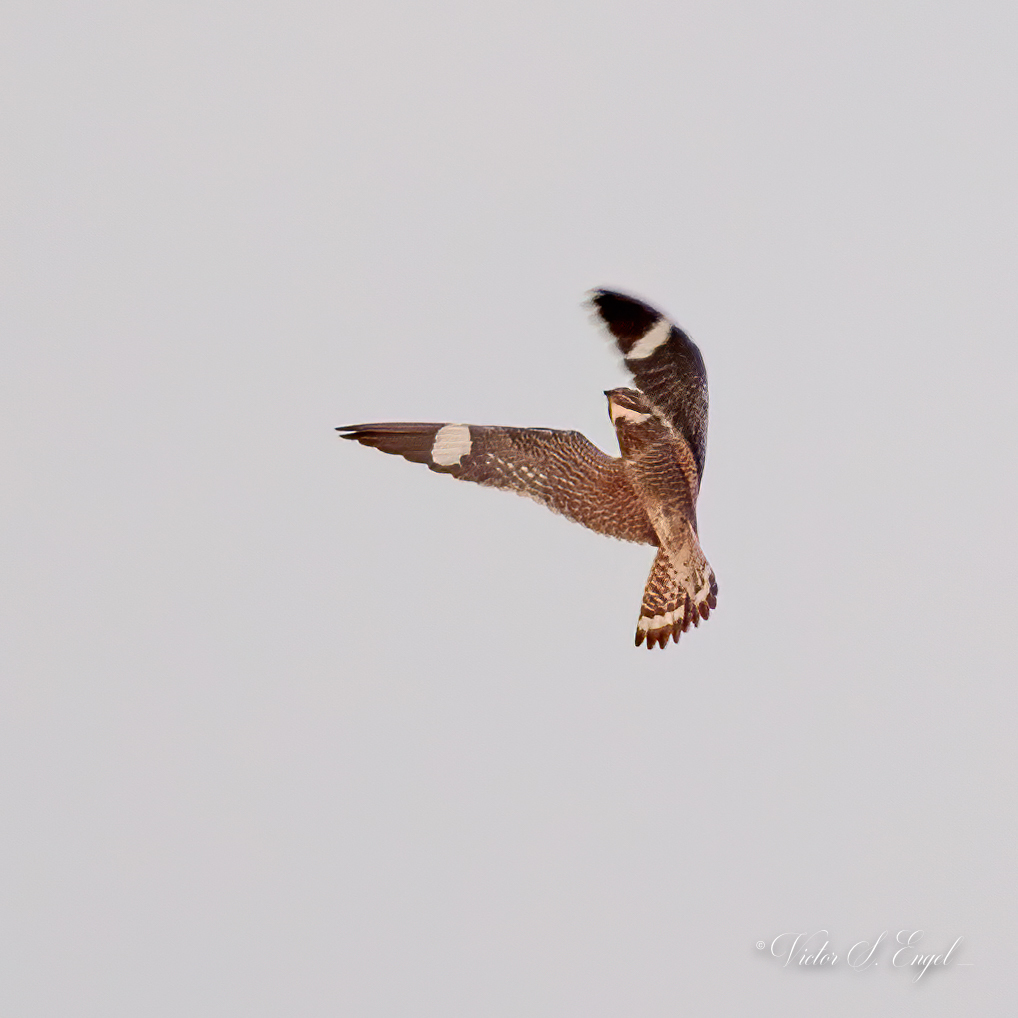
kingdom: Animalia
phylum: Chordata
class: Aves
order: Caprimulgiformes
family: Caprimulgidae
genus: Chordeiles
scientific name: Chordeiles minor
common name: Common nighthawk
